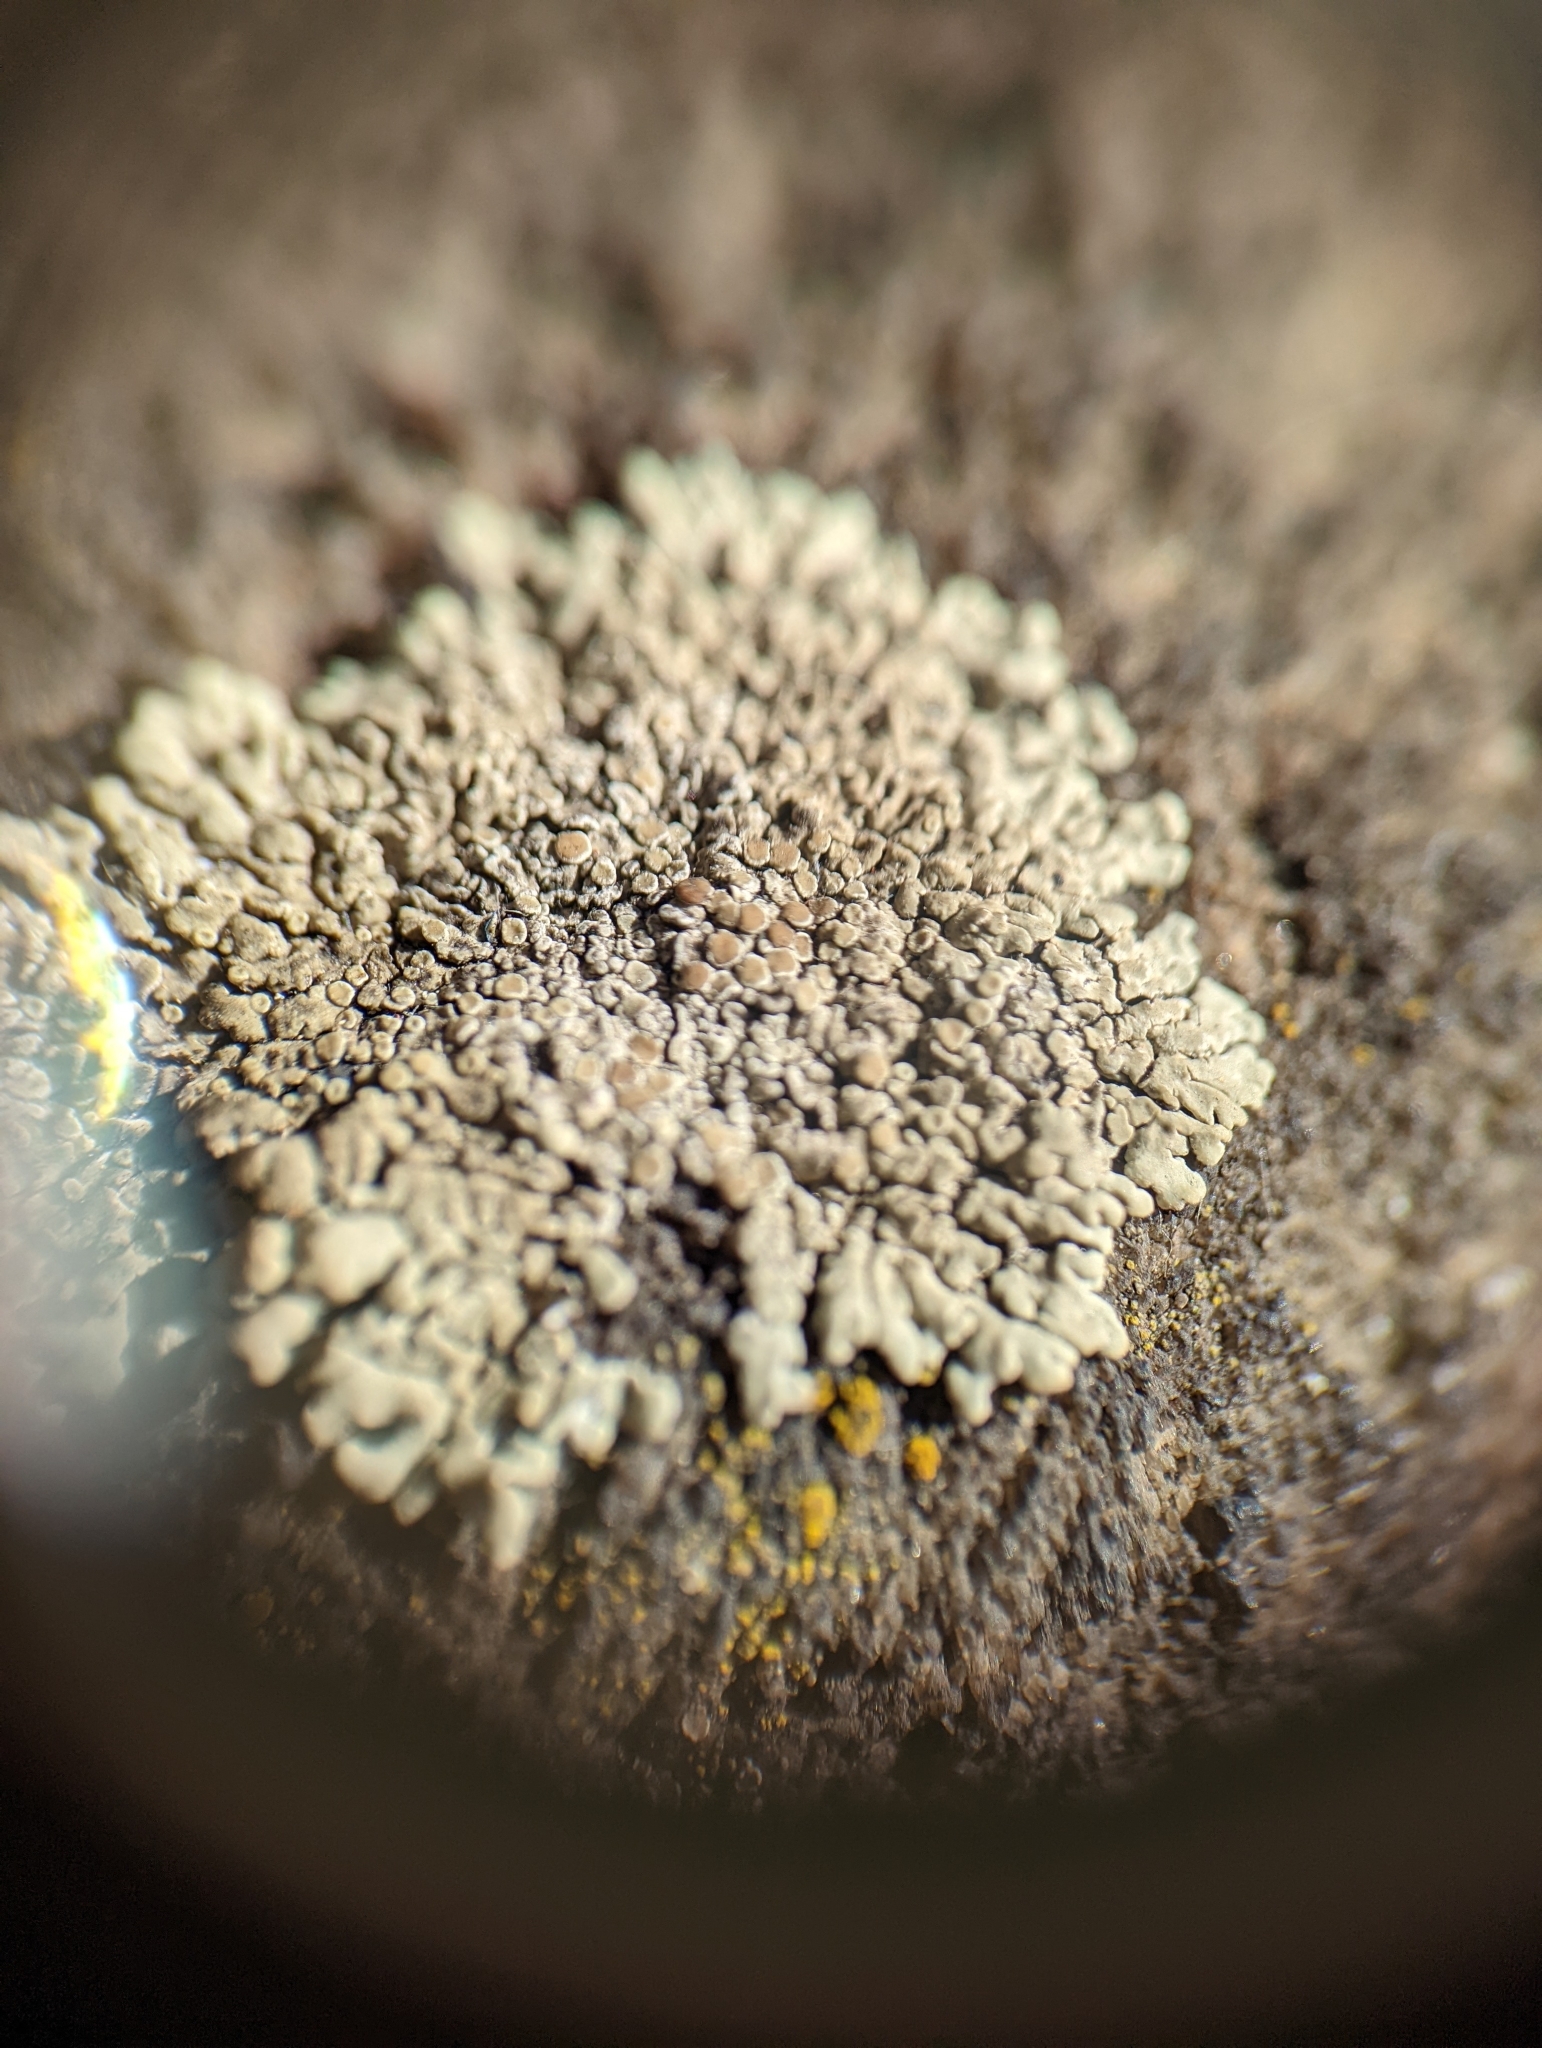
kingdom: Fungi
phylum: Ascomycota
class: Lecanoromycetes
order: Lecanorales
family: Lecanoraceae
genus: Protoparmeliopsis
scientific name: Protoparmeliopsis muralis
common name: Stonewall rim lichen
